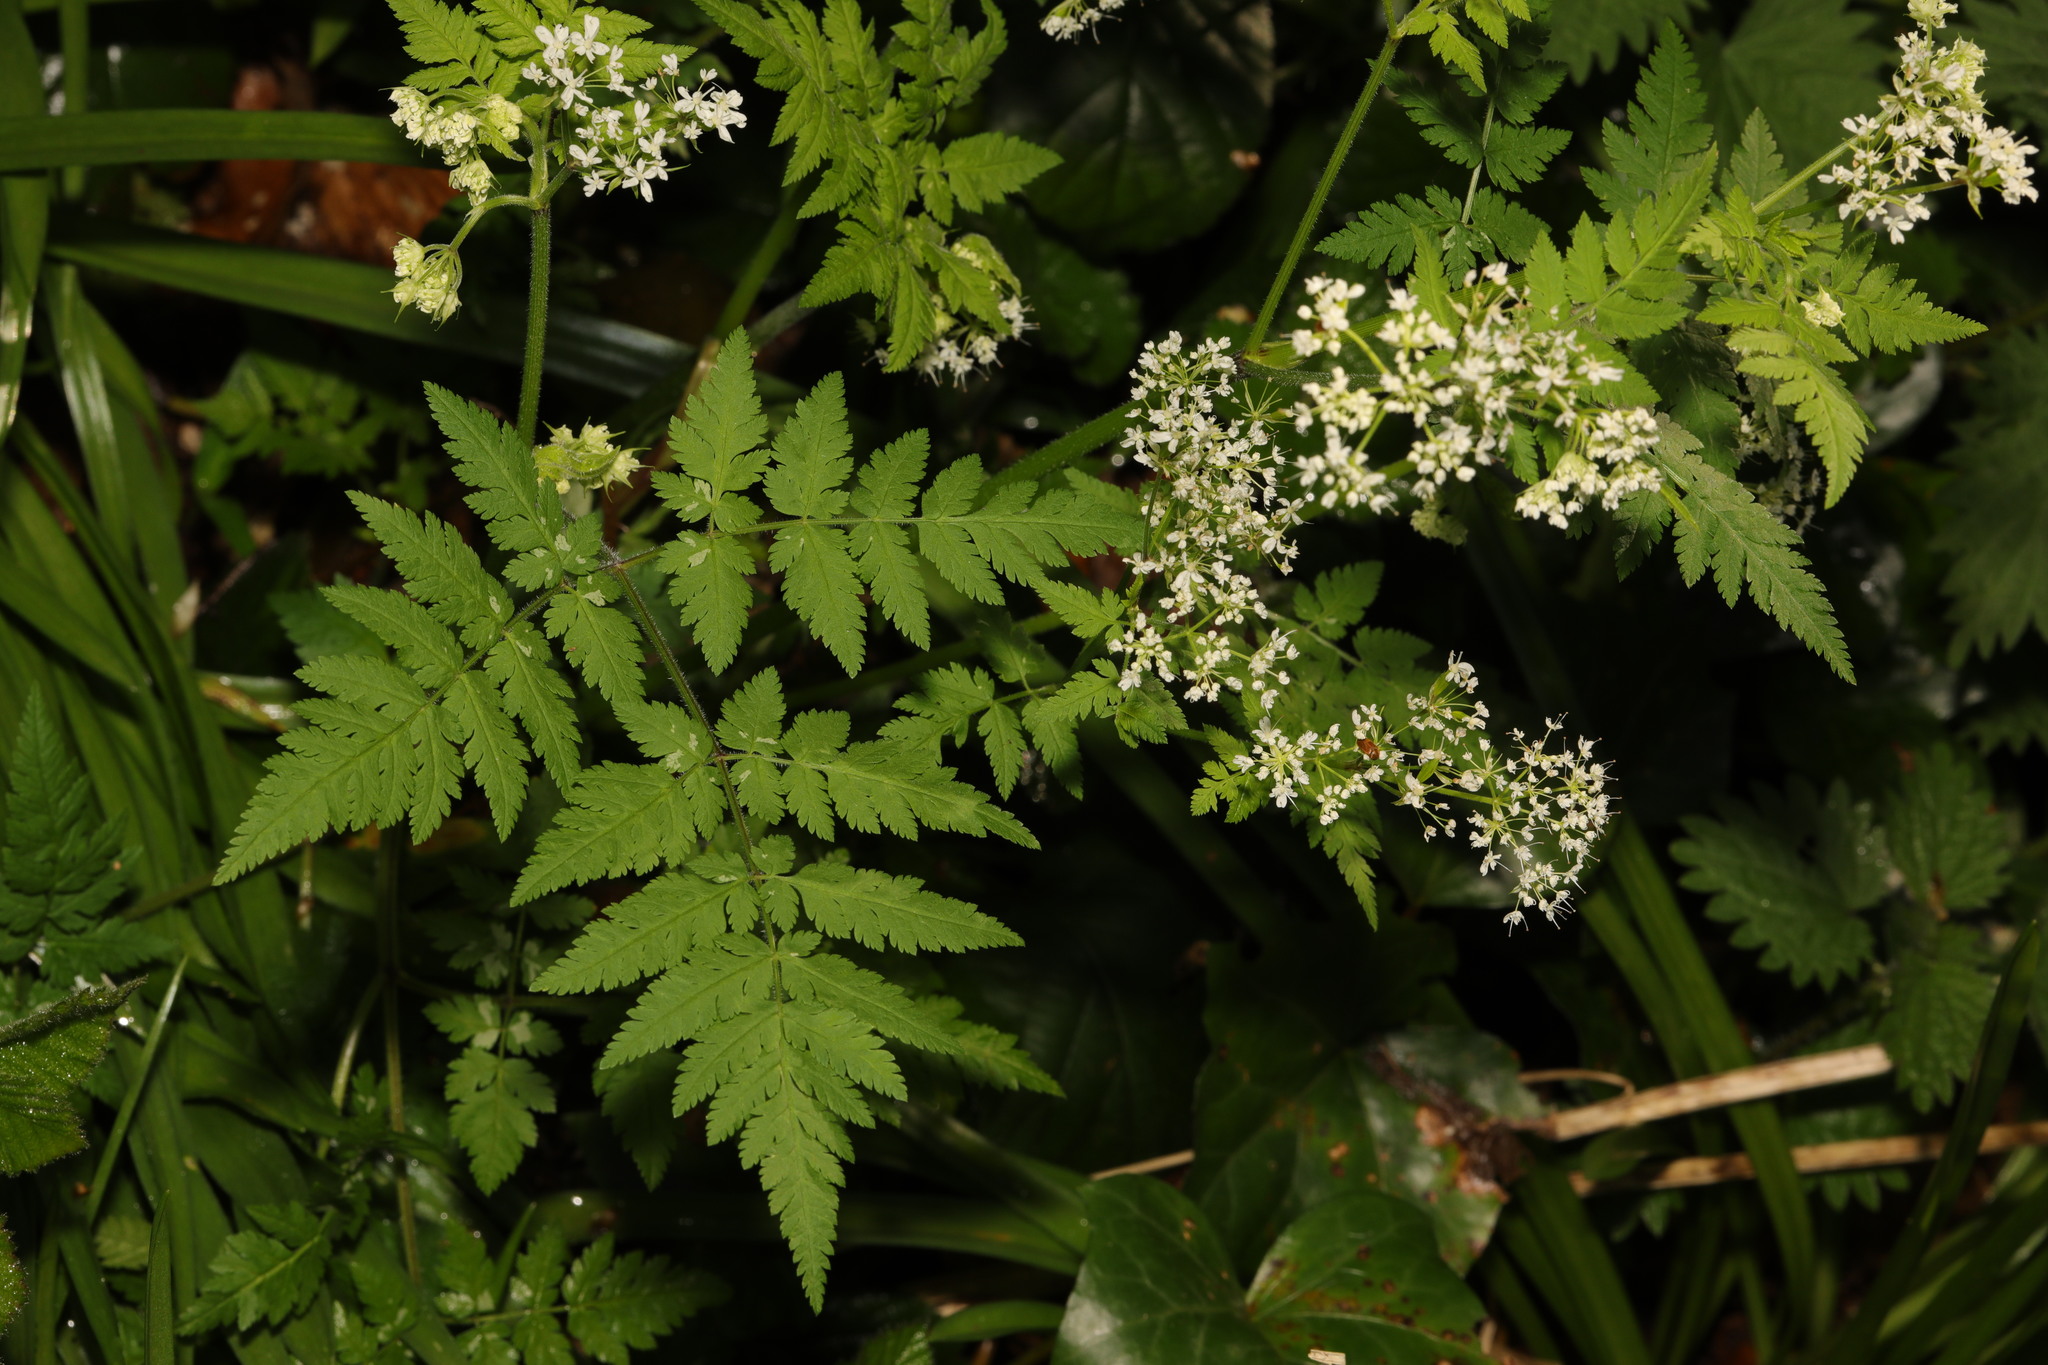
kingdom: Plantae
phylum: Tracheophyta
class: Magnoliopsida
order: Apiales
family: Apiaceae
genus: Anthriscus
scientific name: Anthriscus sylvestris
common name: Cow parsley
